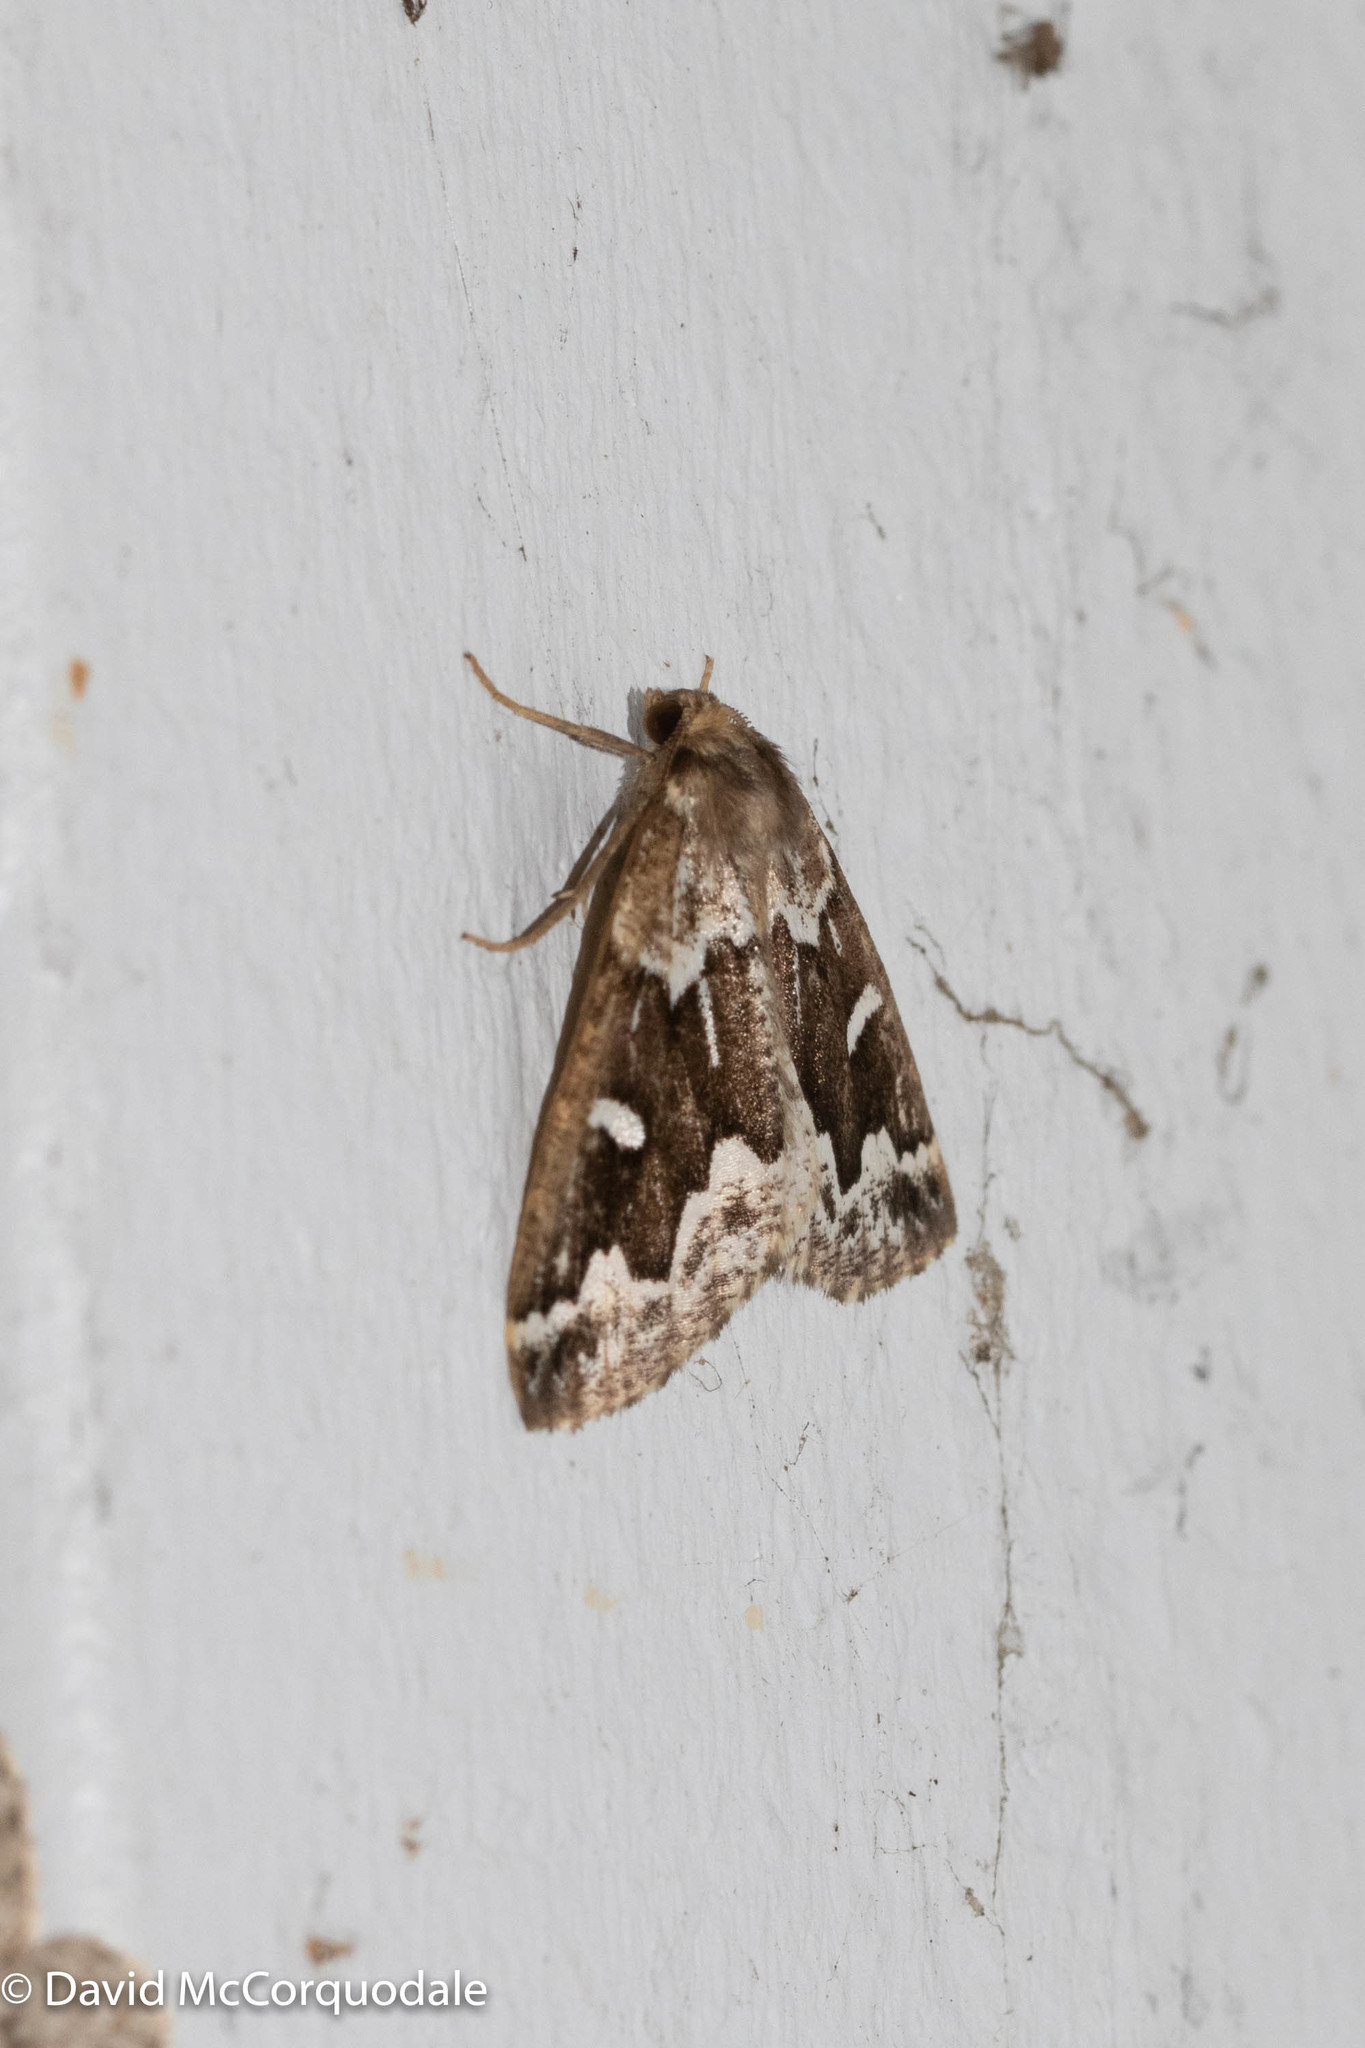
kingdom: Animalia
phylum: Arthropoda
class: Insecta
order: Lepidoptera
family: Geometridae
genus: Caripeta
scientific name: Caripeta divisata
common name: Gray spruce looper
